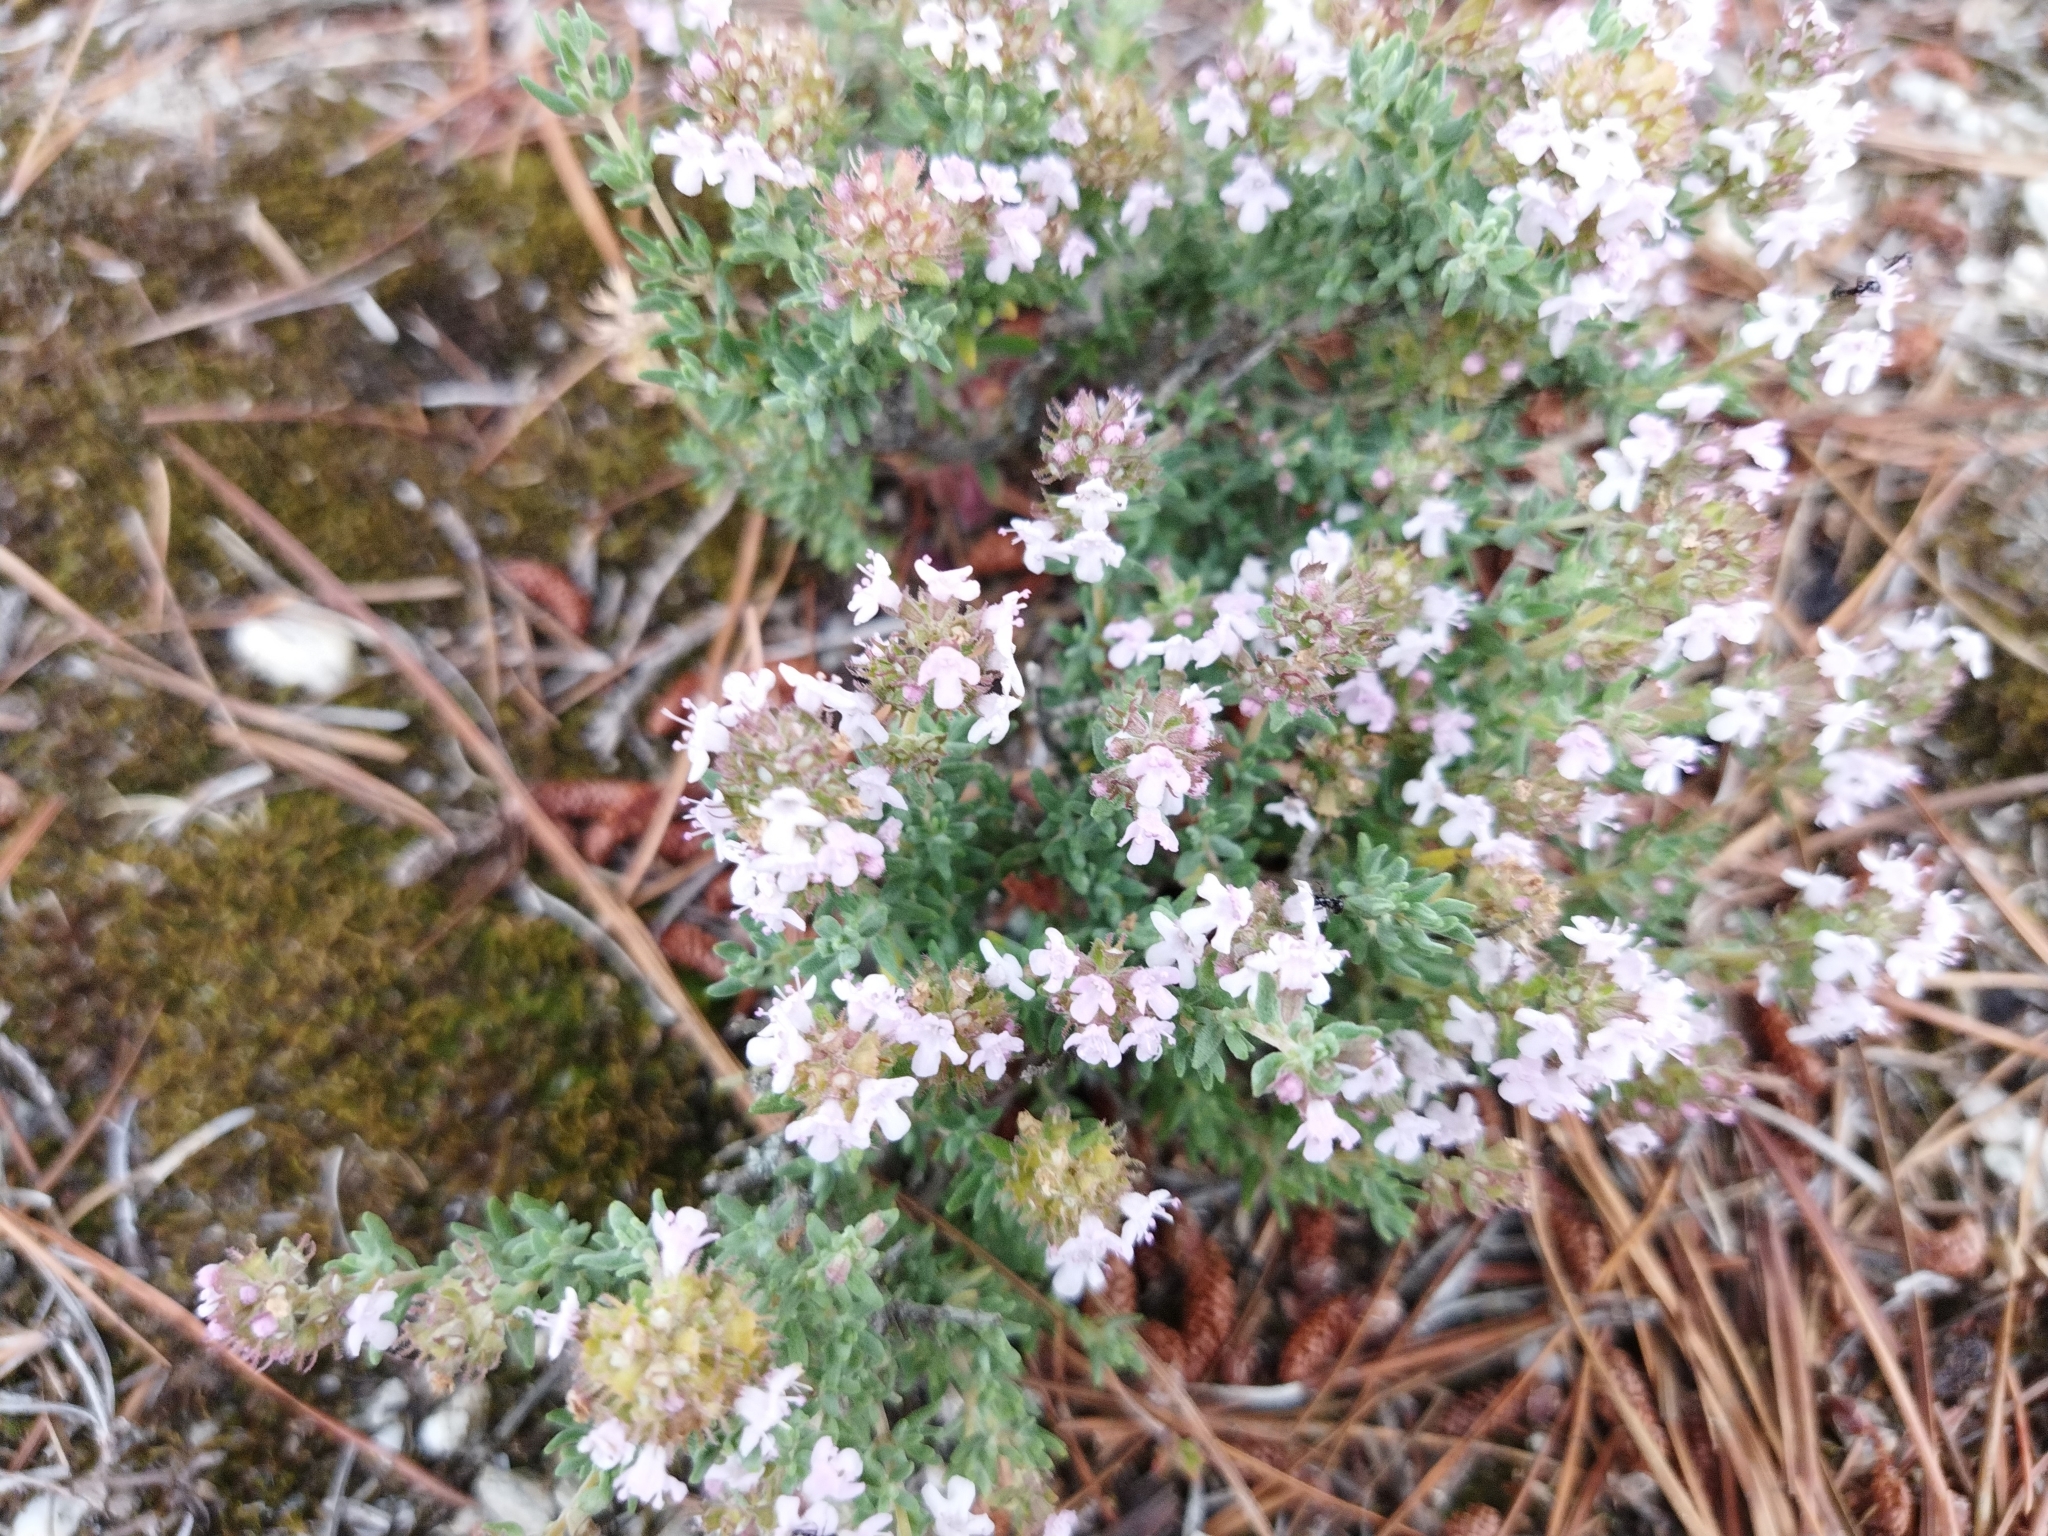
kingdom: Plantae
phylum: Tracheophyta
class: Magnoliopsida
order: Lamiales
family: Lamiaceae
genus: Thymus
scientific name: Thymus vulgaris
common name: Garden thyme
